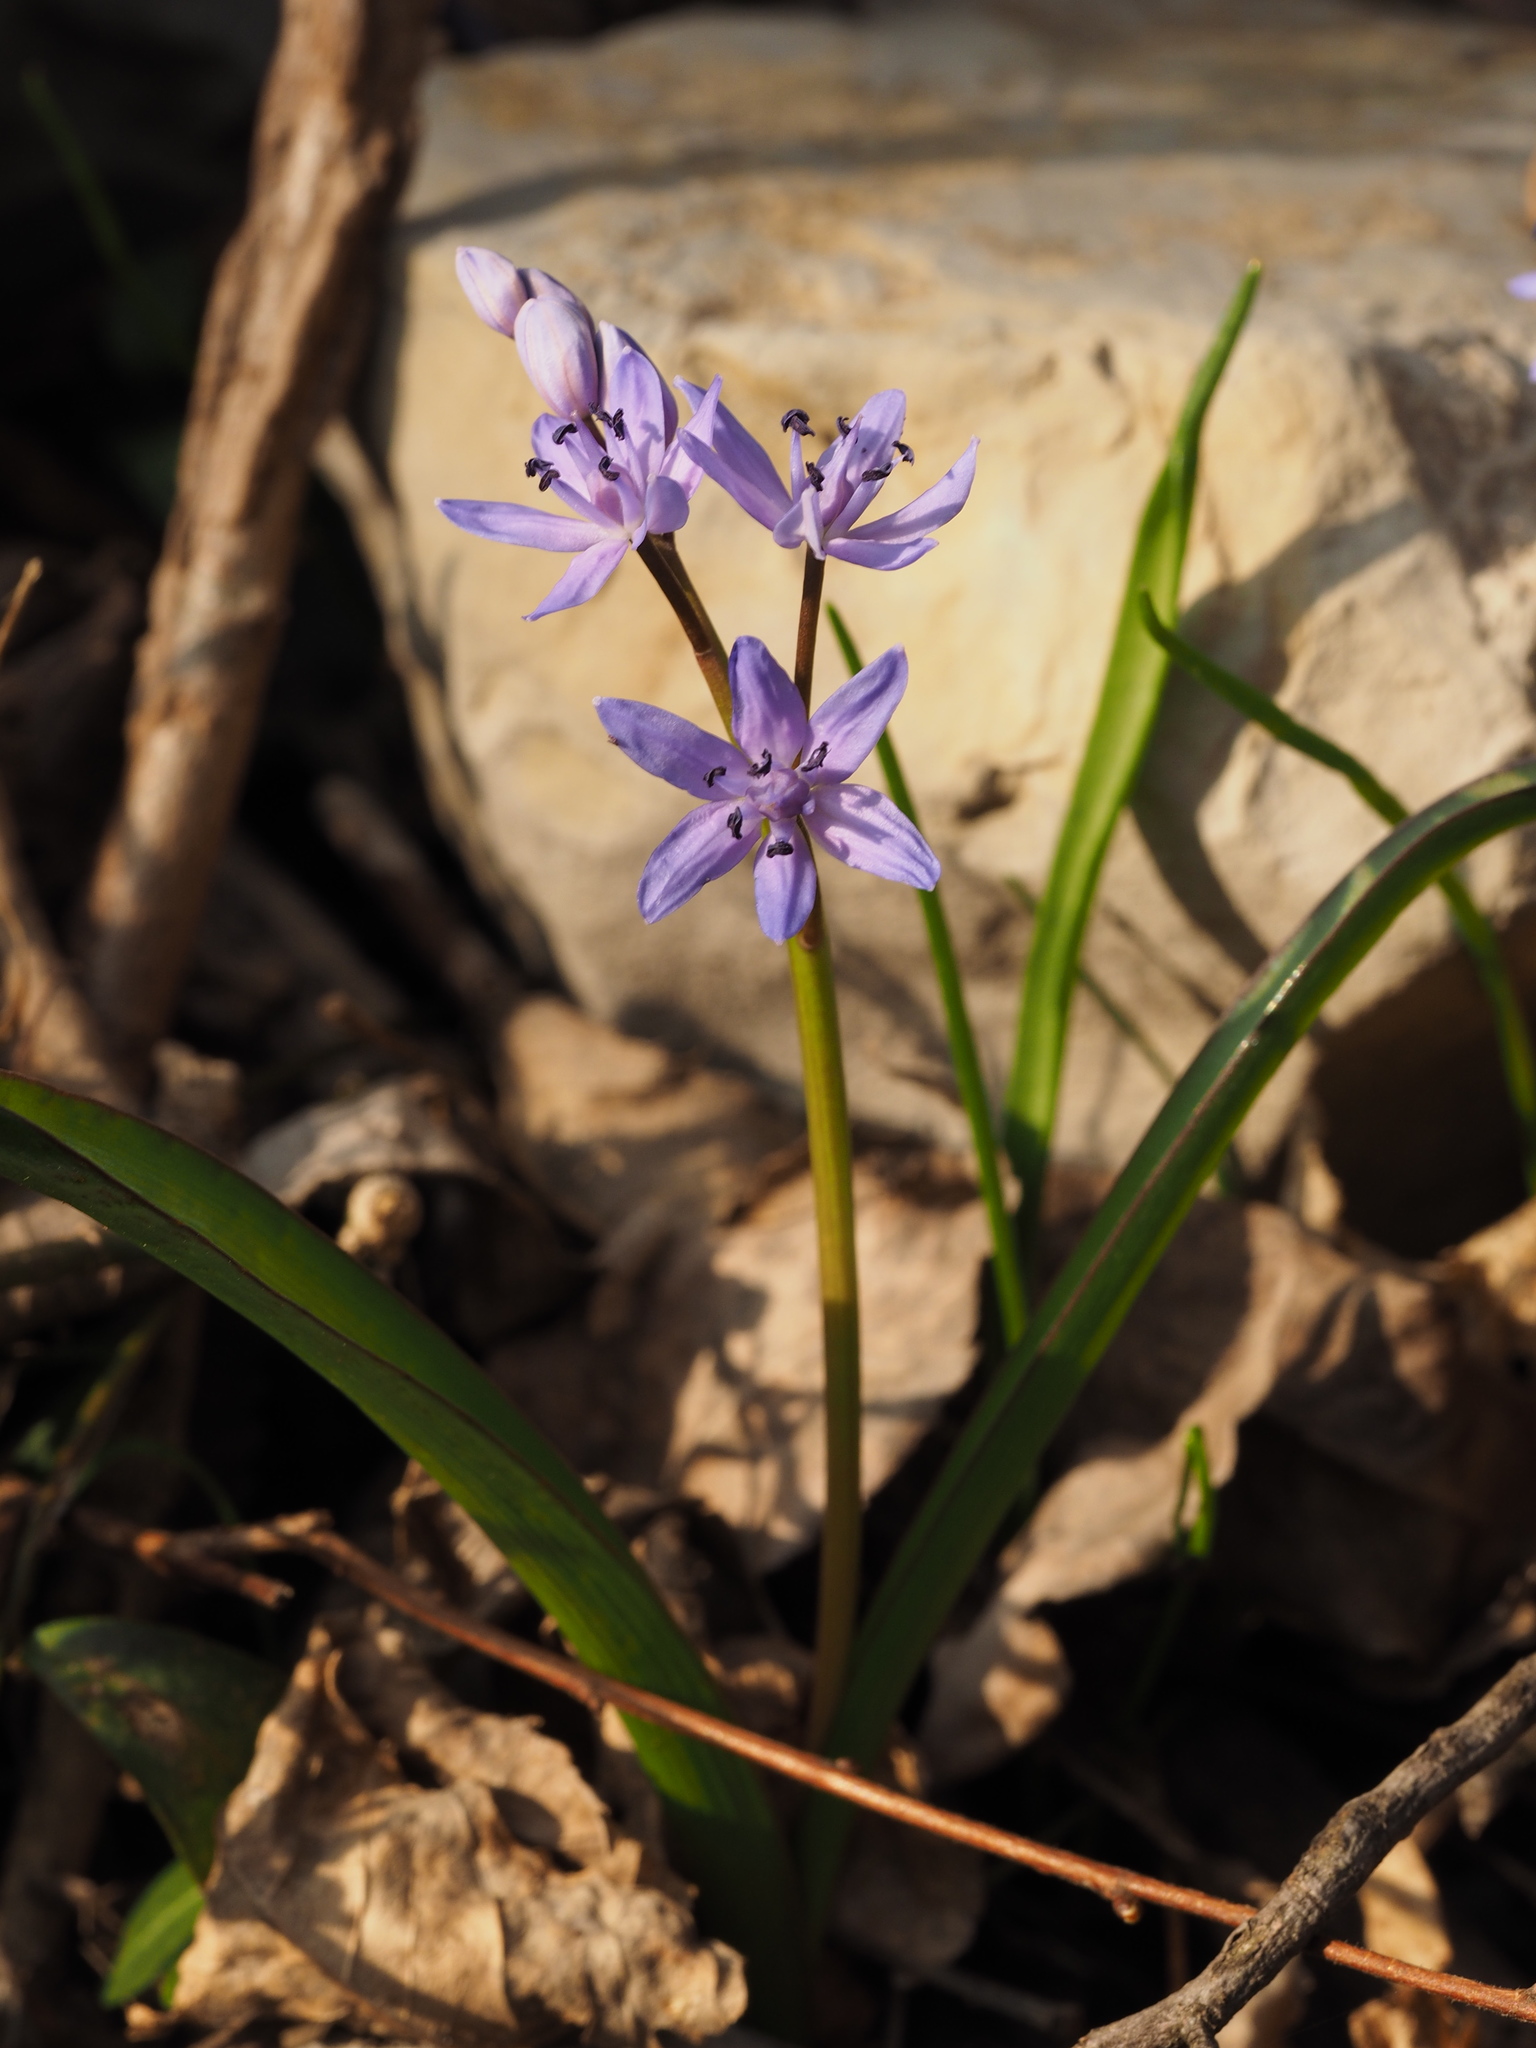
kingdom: Plantae
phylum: Tracheophyta
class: Liliopsida
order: Asparagales
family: Asparagaceae
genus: Scilla
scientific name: Scilla bifolia
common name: Alpine squill
